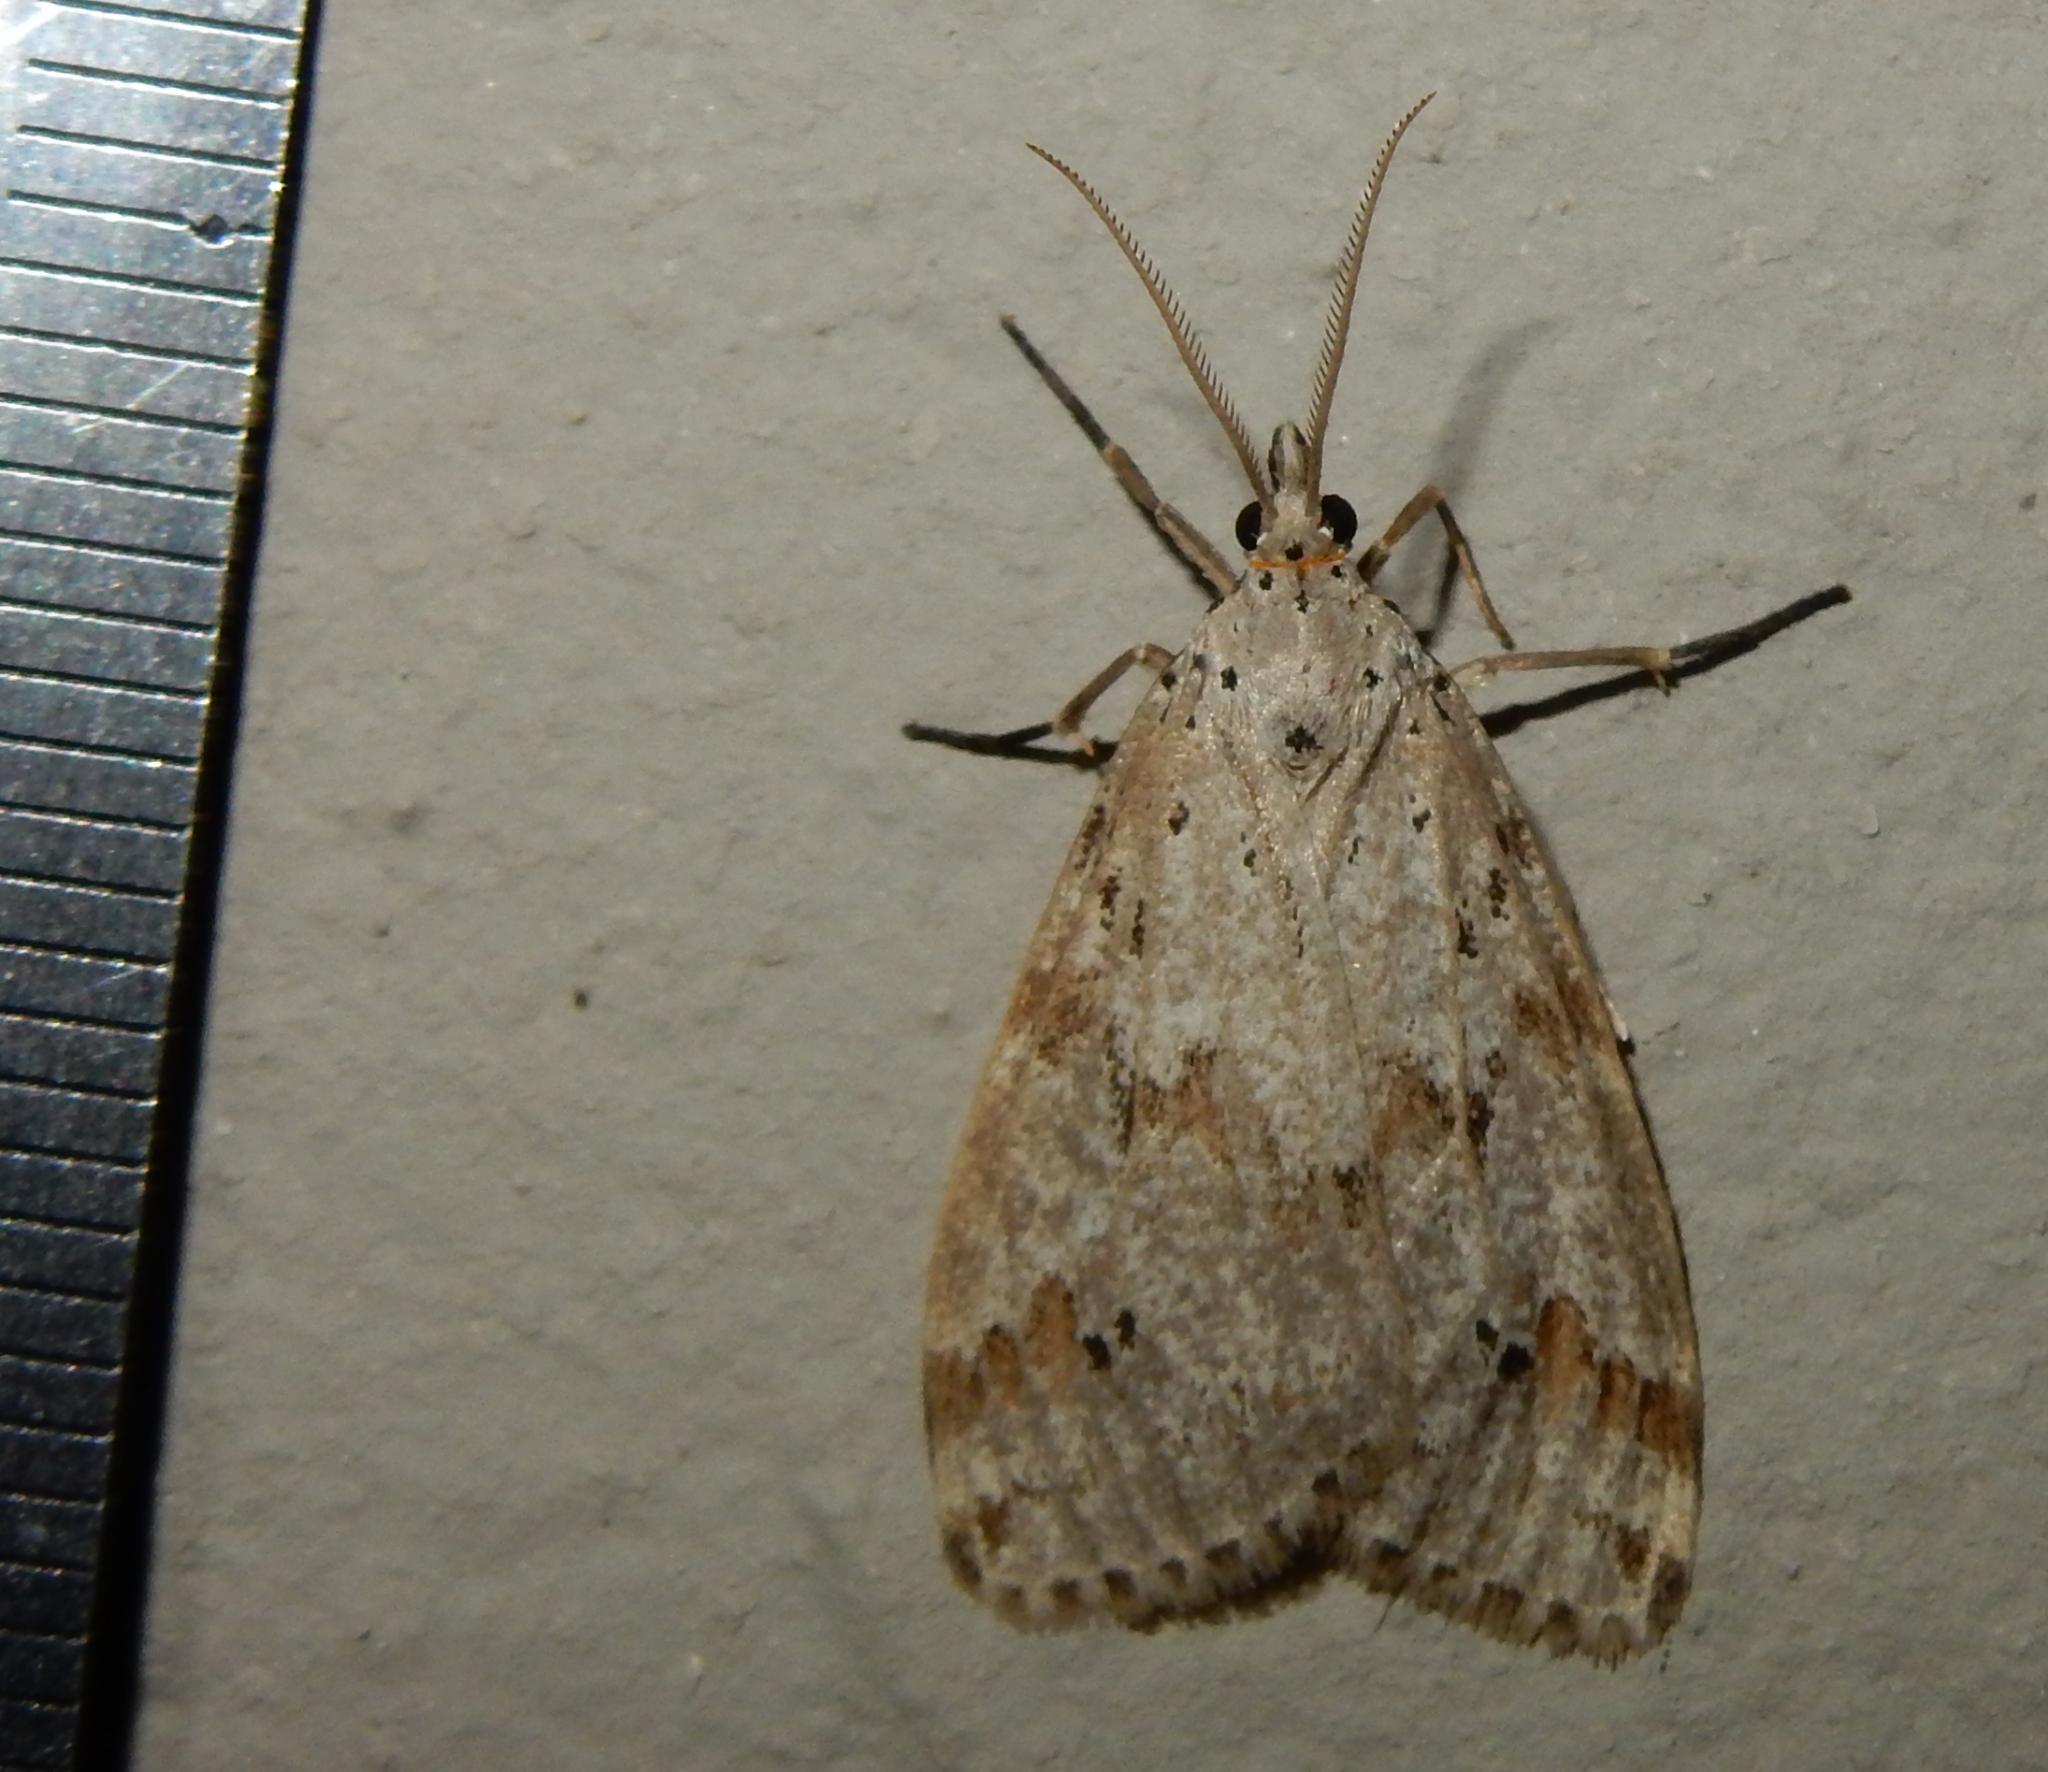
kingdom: Animalia
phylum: Arthropoda
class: Insecta
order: Lepidoptera
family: Erebidae
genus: Galtara
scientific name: Galtara rostrata
